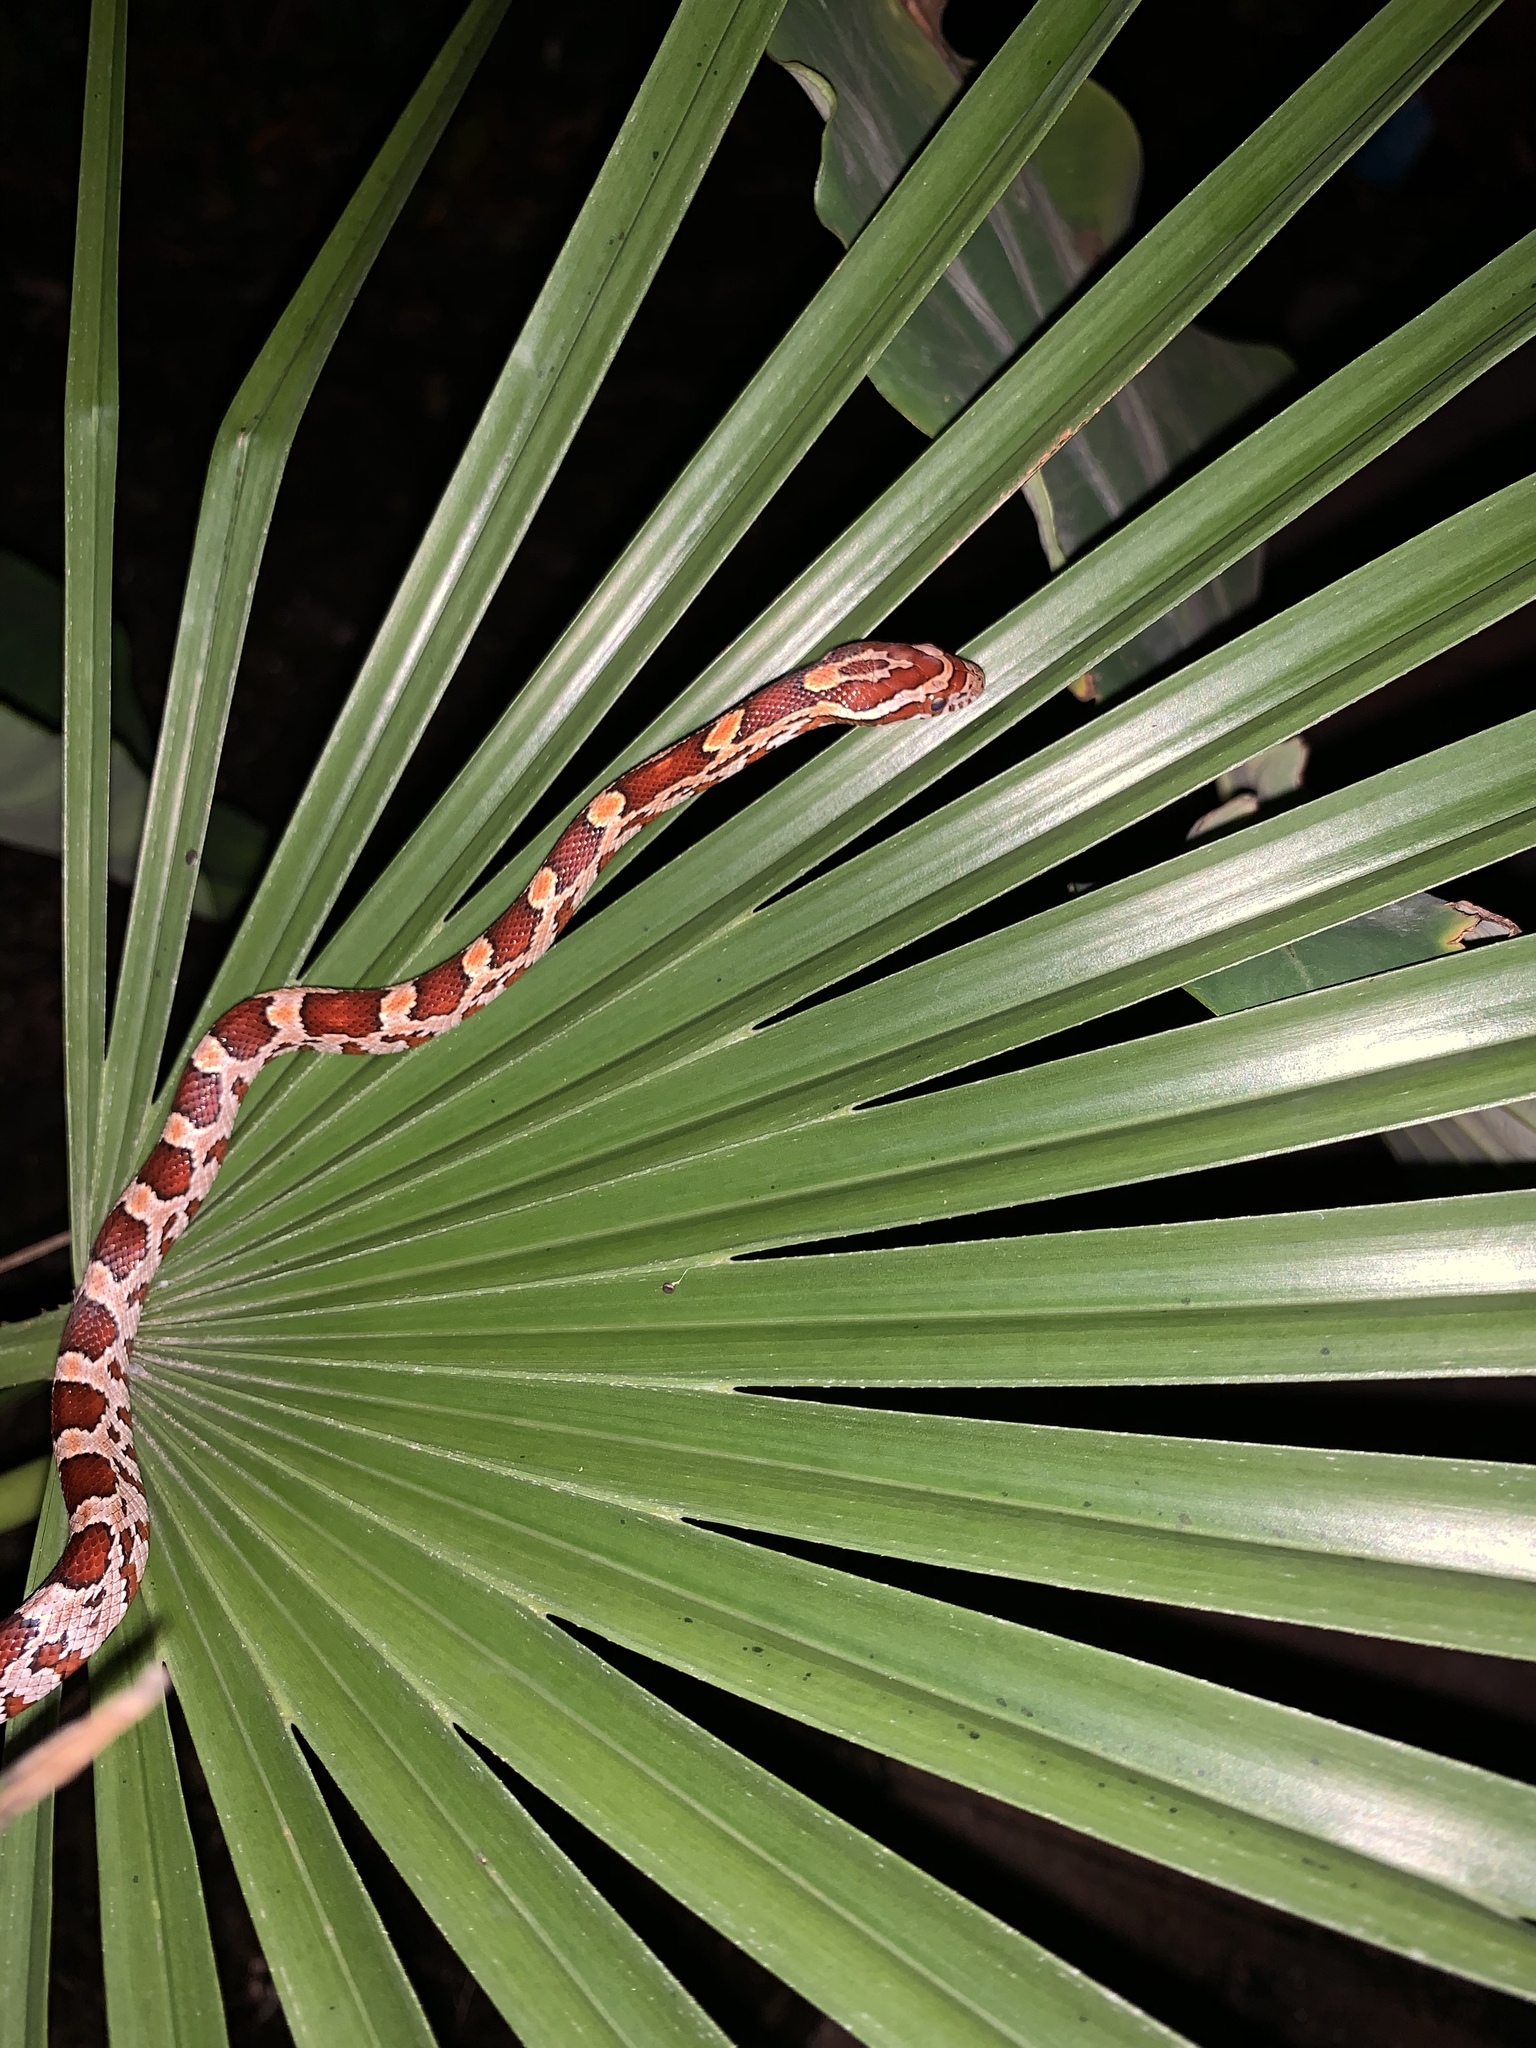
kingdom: Animalia
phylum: Chordata
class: Squamata
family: Colubridae
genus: Pantherophis
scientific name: Pantherophis guttatus
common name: Red cornsnake
